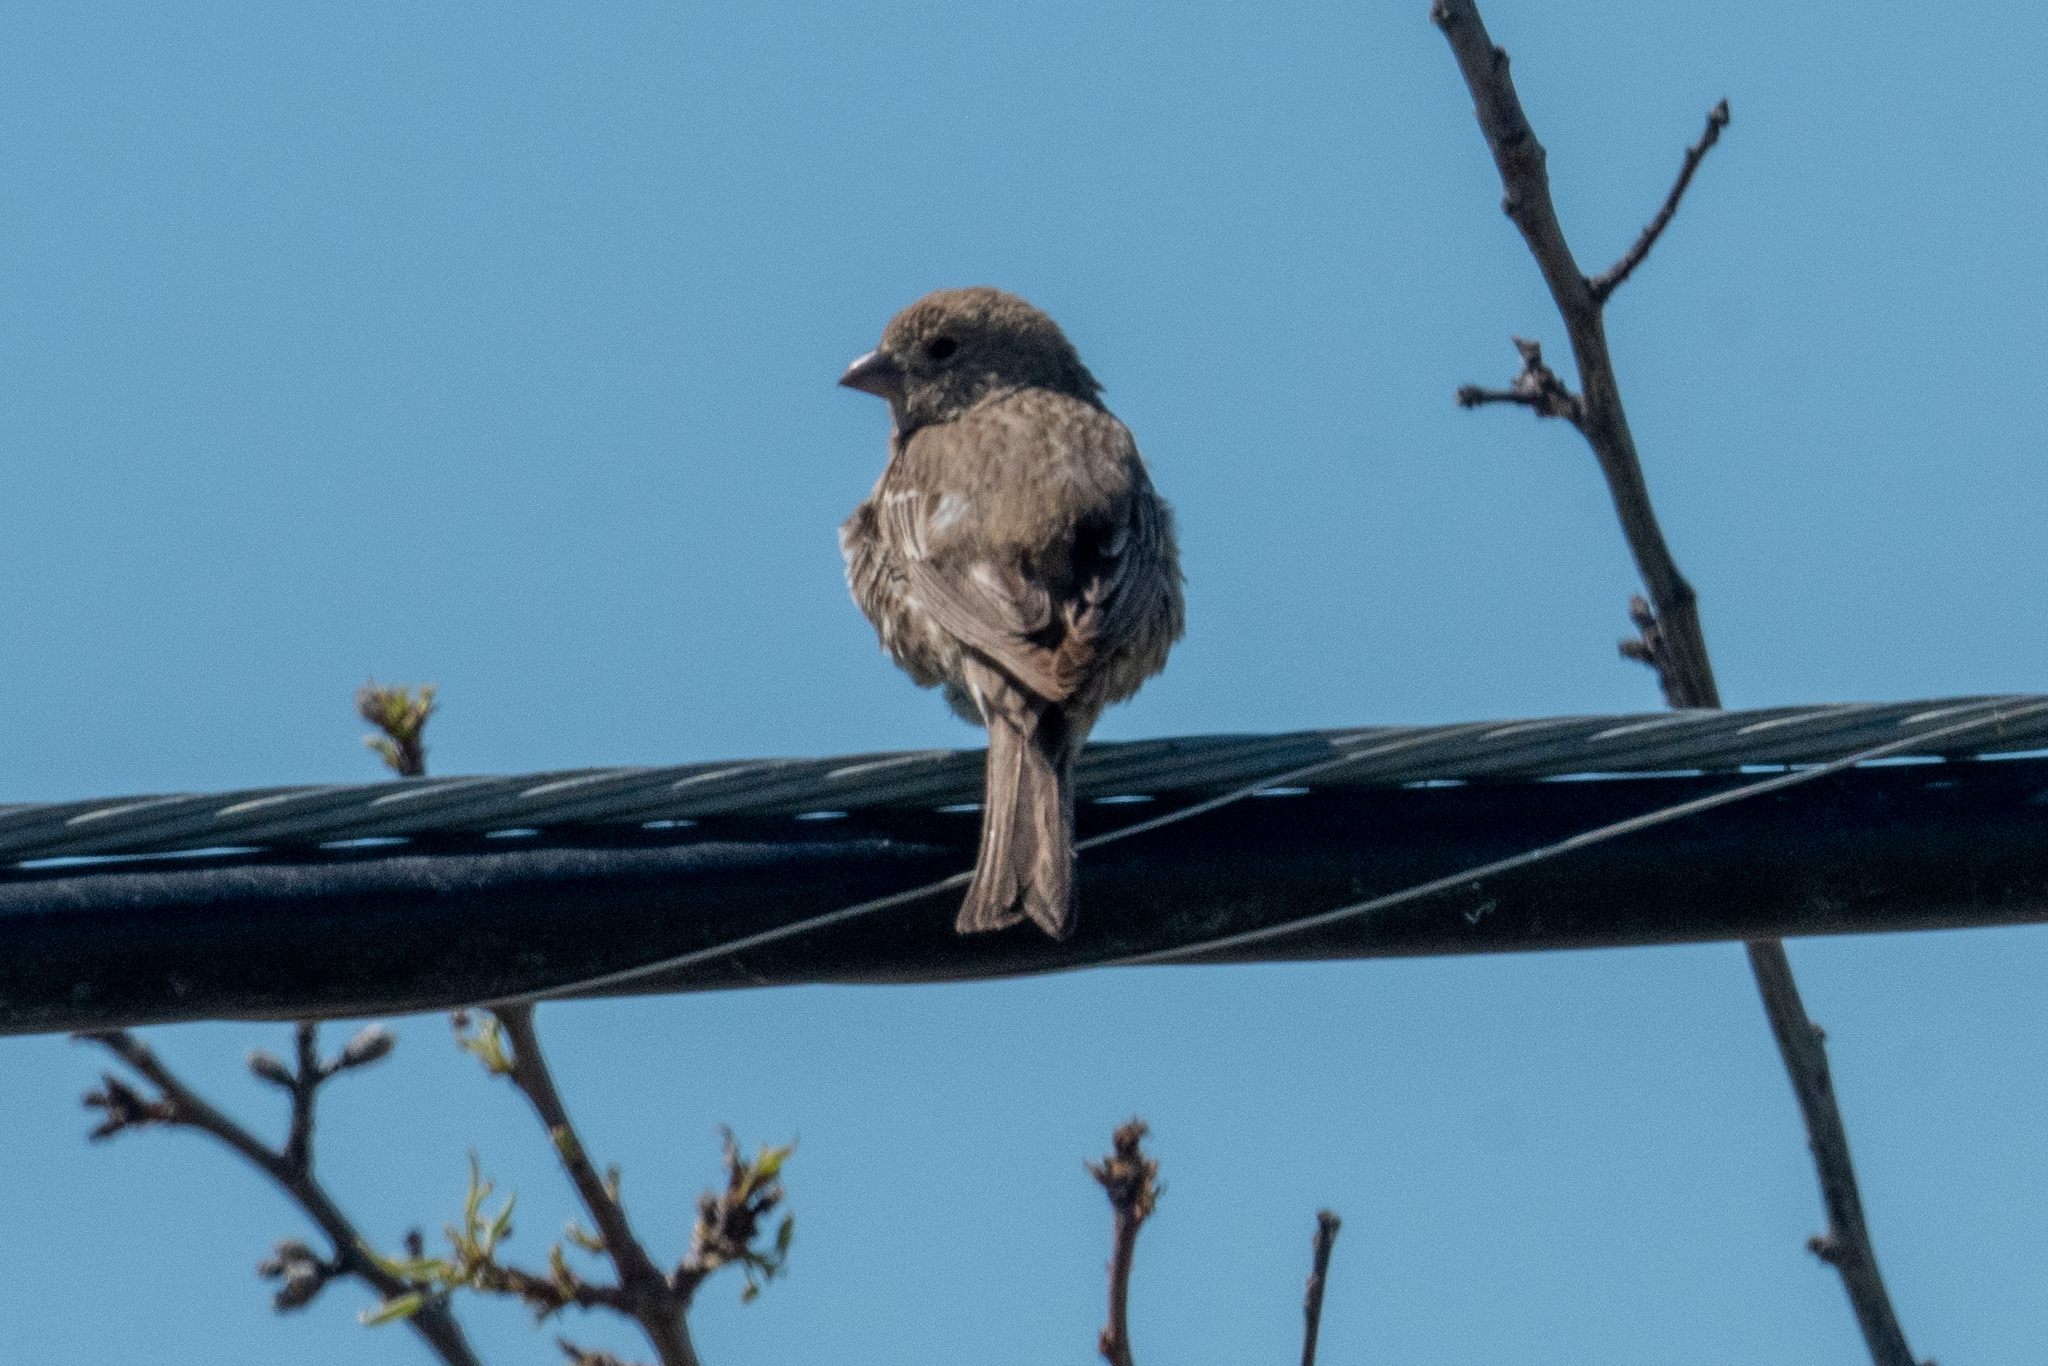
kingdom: Animalia
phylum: Chordata
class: Aves
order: Passeriformes
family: Fringillidae
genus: Haemorhous
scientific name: Haemorhous mexicanus
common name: House finch
